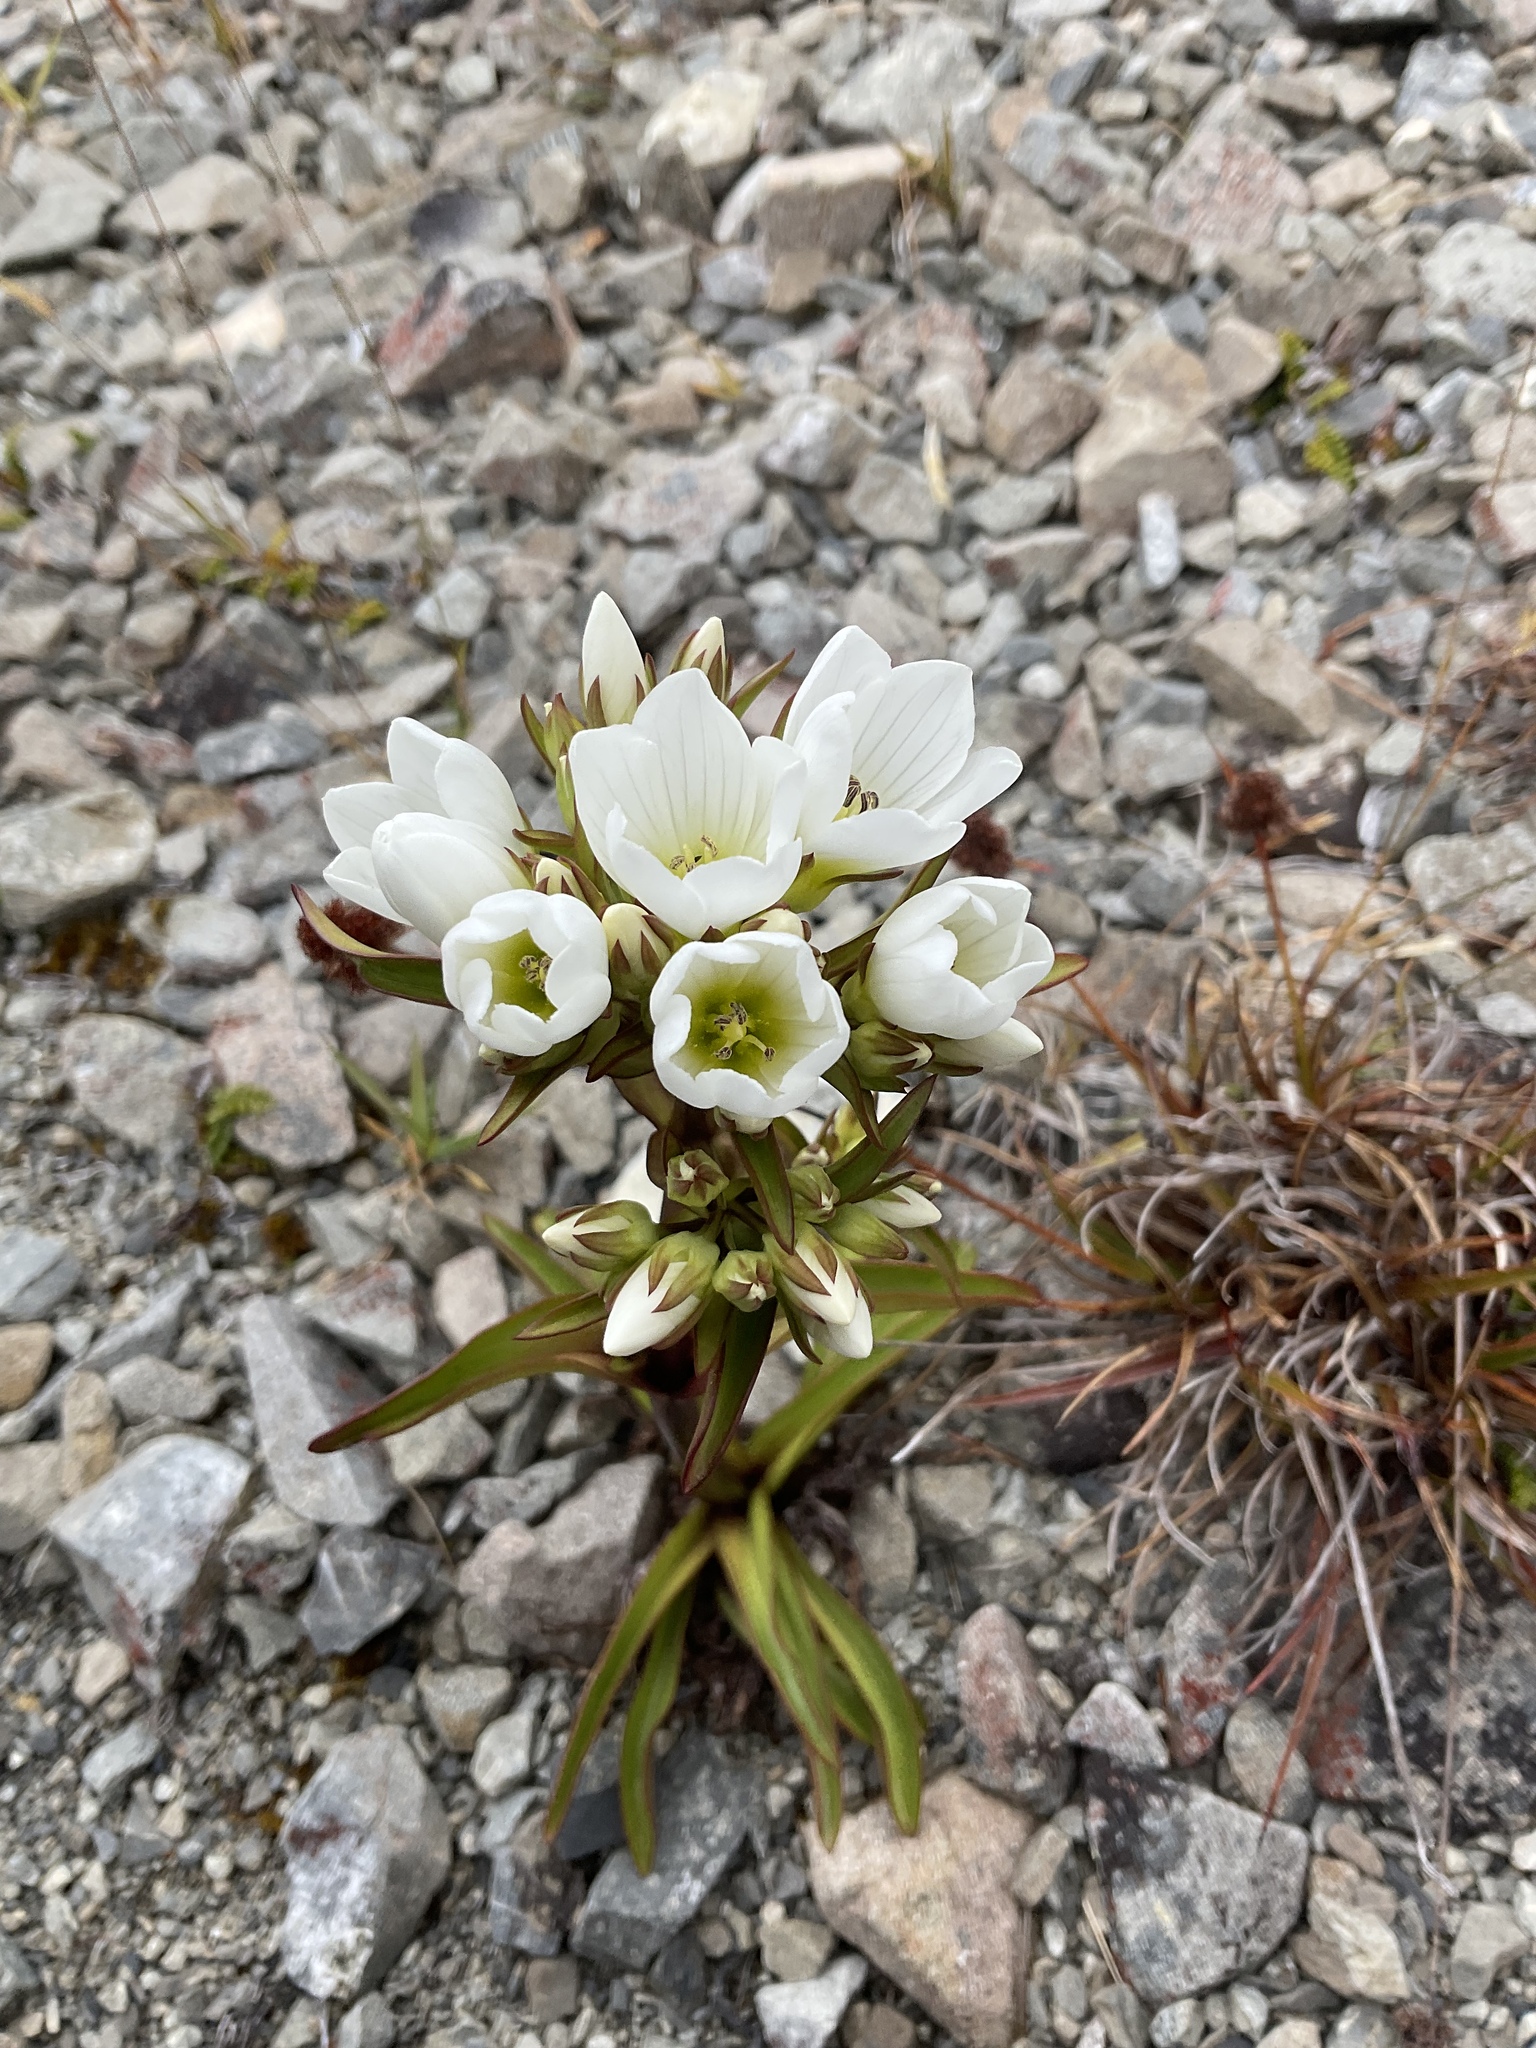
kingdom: Plantae
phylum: Tracheophyta
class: Magnoliopsida
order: Gentianales
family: Gentianaceae
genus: Gentianella
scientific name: Gentianella corymbifera
